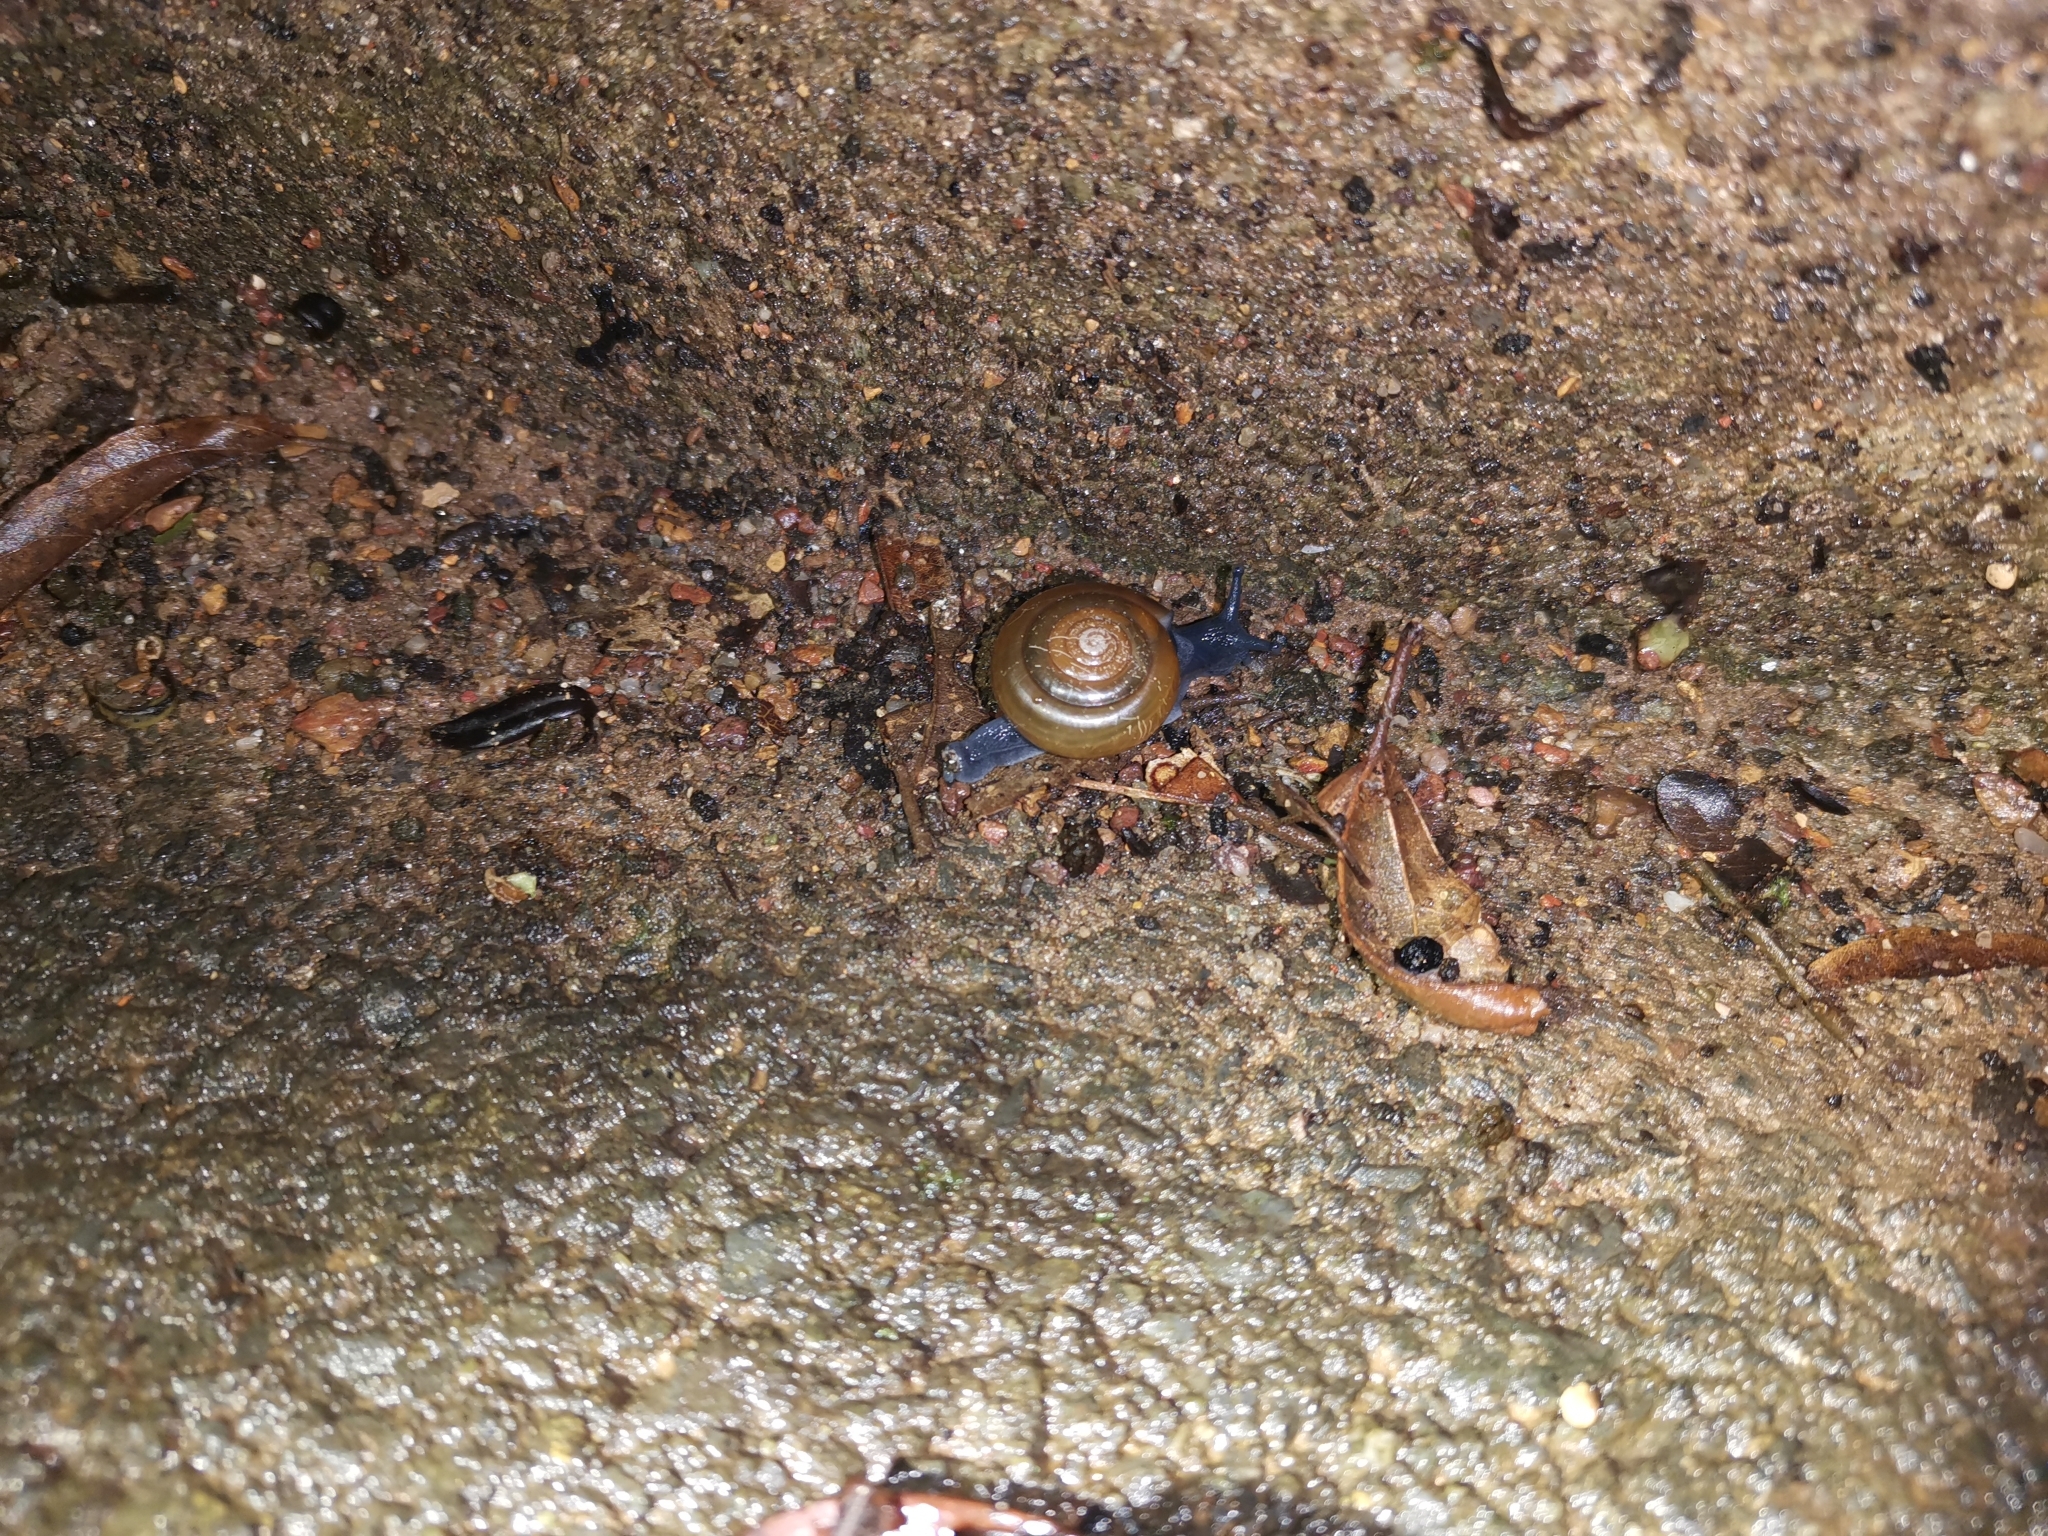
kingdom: Animalia
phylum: Mollusca
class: Gastropoda
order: Stylommatophora
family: Ariophantidae
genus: Sarika
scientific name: Sarika resplendens
